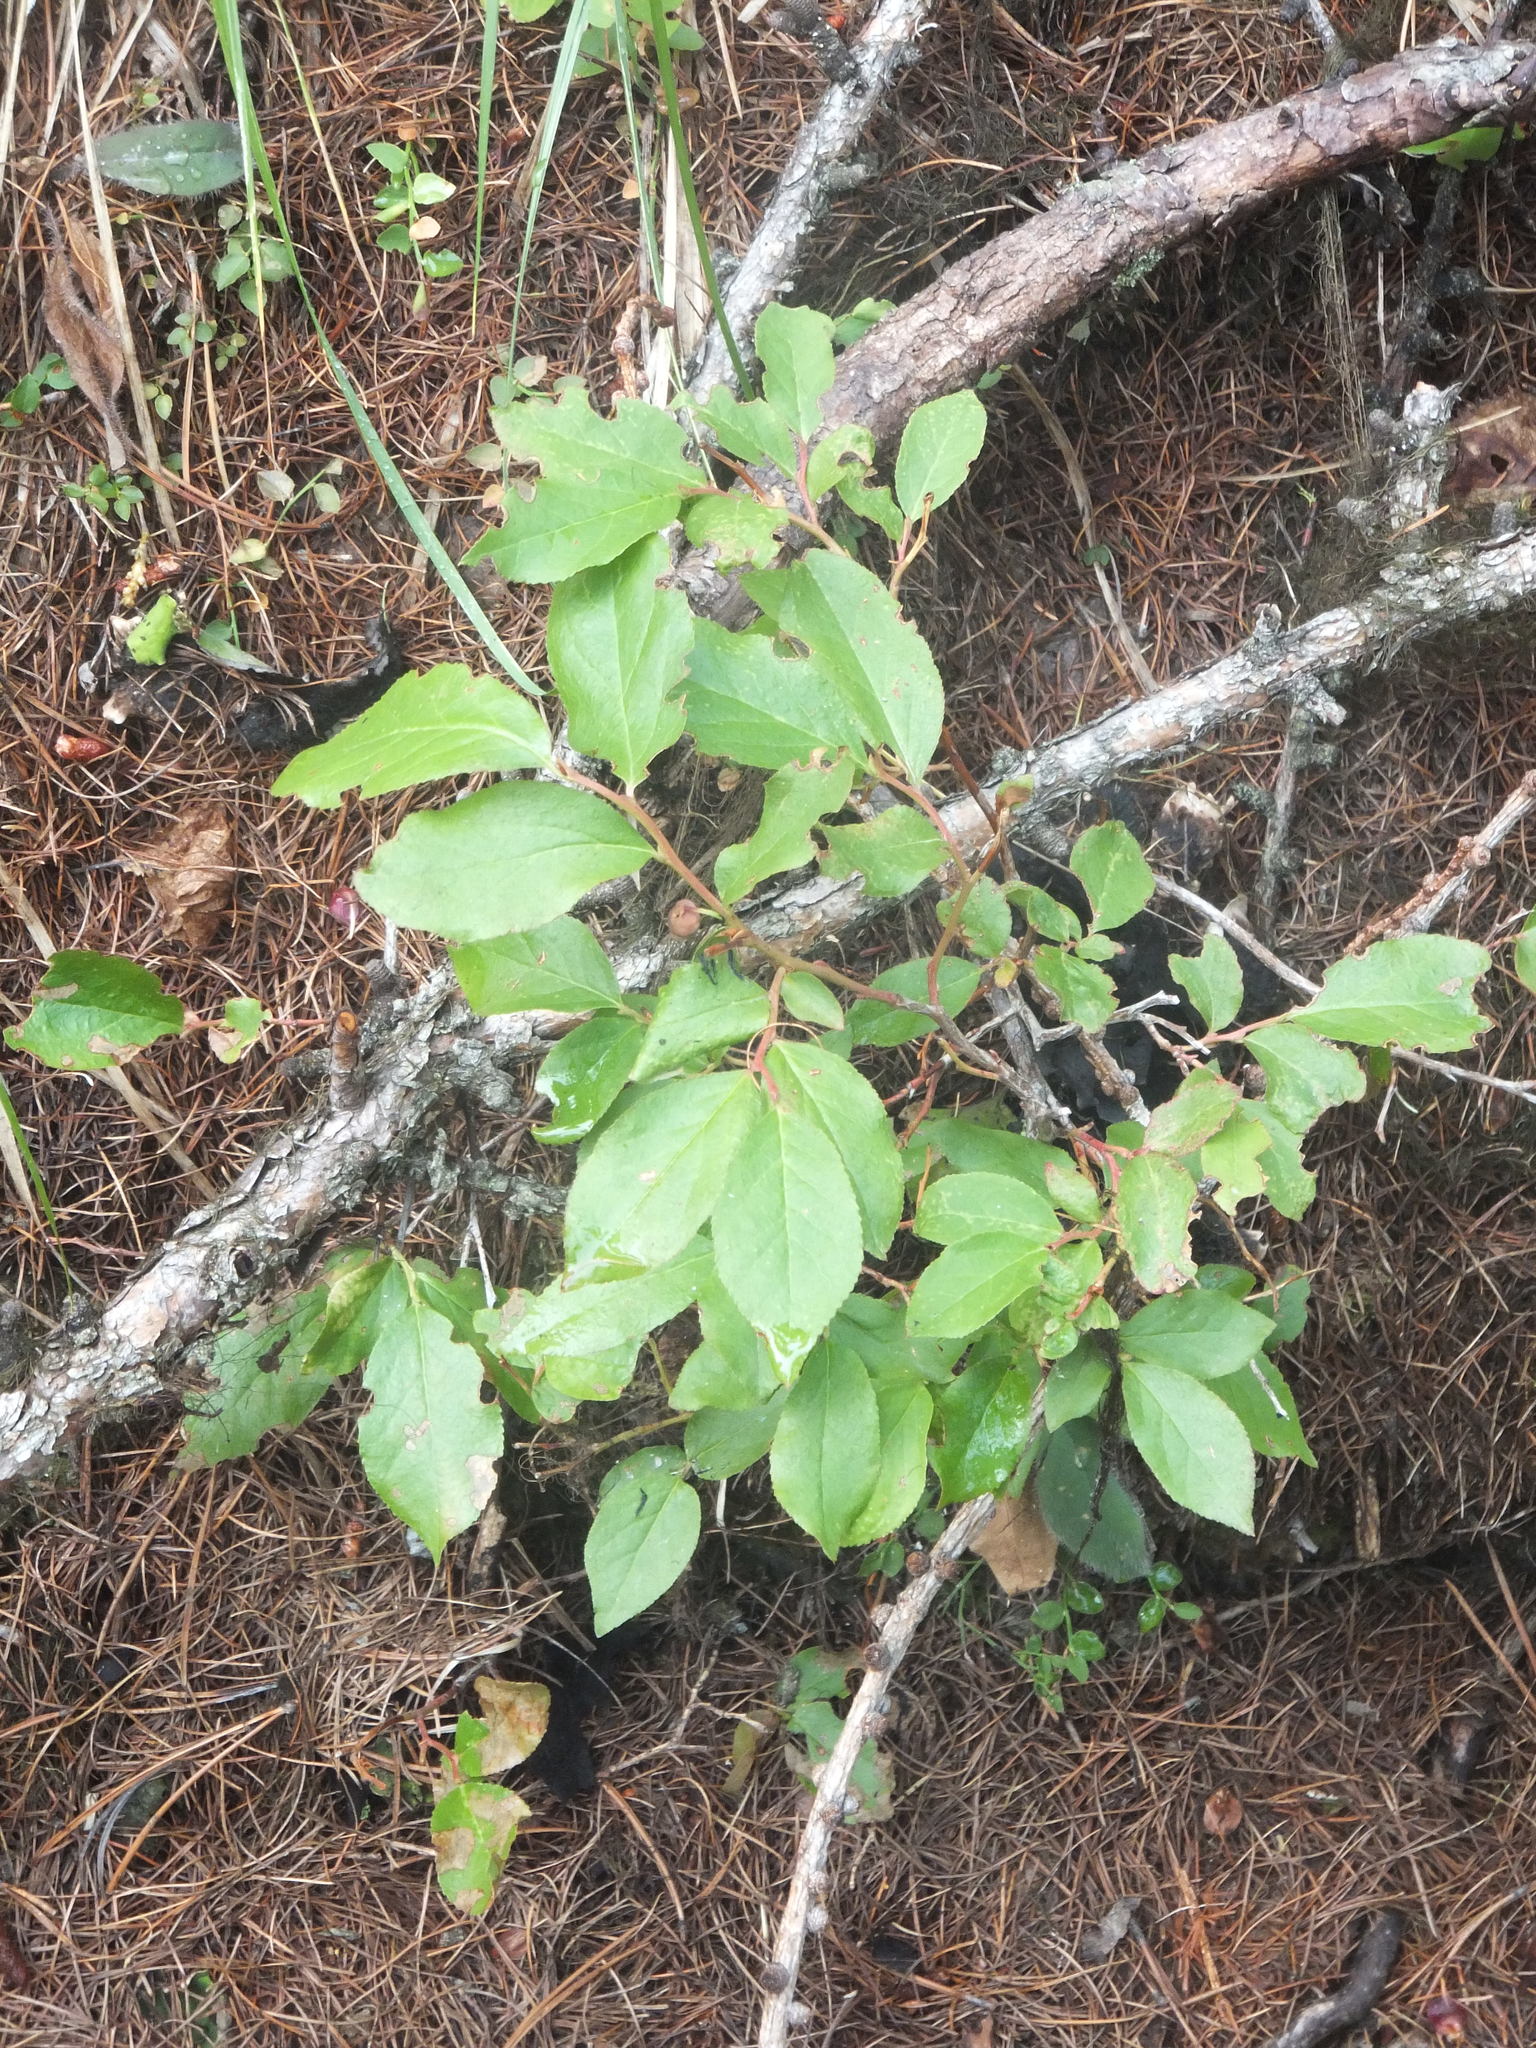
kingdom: Plantae
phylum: Tracheophyta
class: Magnoliopsida
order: Ericales
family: Ericaceae
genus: Vaccinium
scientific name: Vaccinium membranaceum
